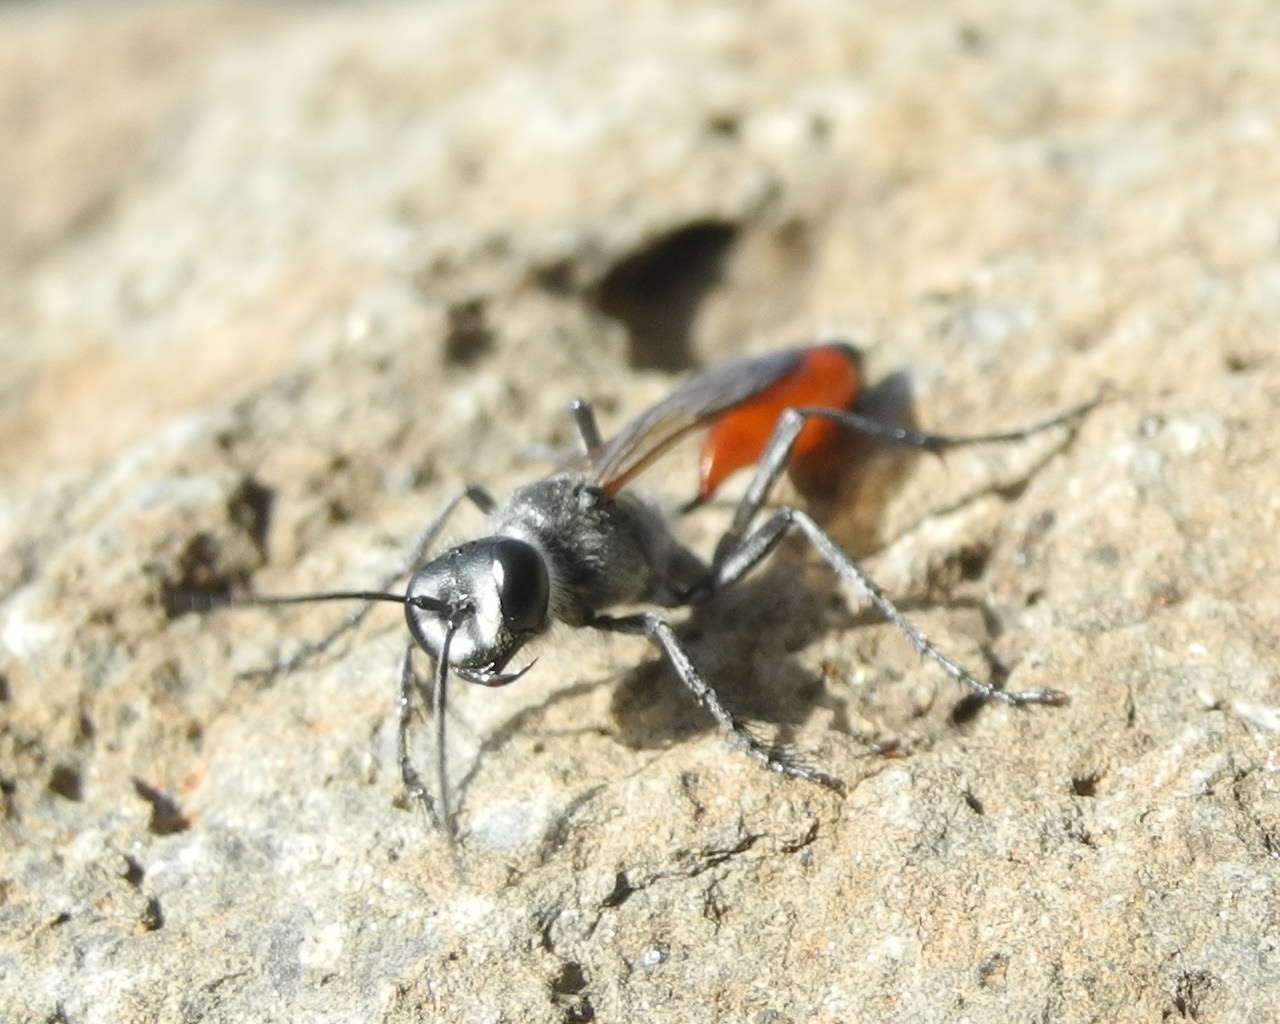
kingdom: Animalia
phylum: Arthropoda
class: Insecta
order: Hymenoptera
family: Sphecidae
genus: Podalonia
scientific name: Podalonia tydei
